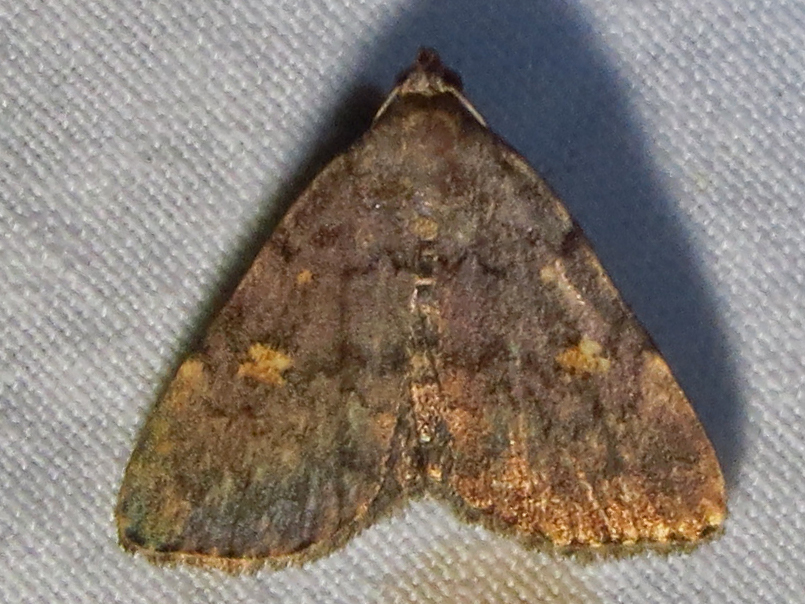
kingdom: Animalia
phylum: Arthropoda
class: Insecta
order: Lepidoptera
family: Erebidae
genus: Idia
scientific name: Idia aemula
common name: Common idia moth
